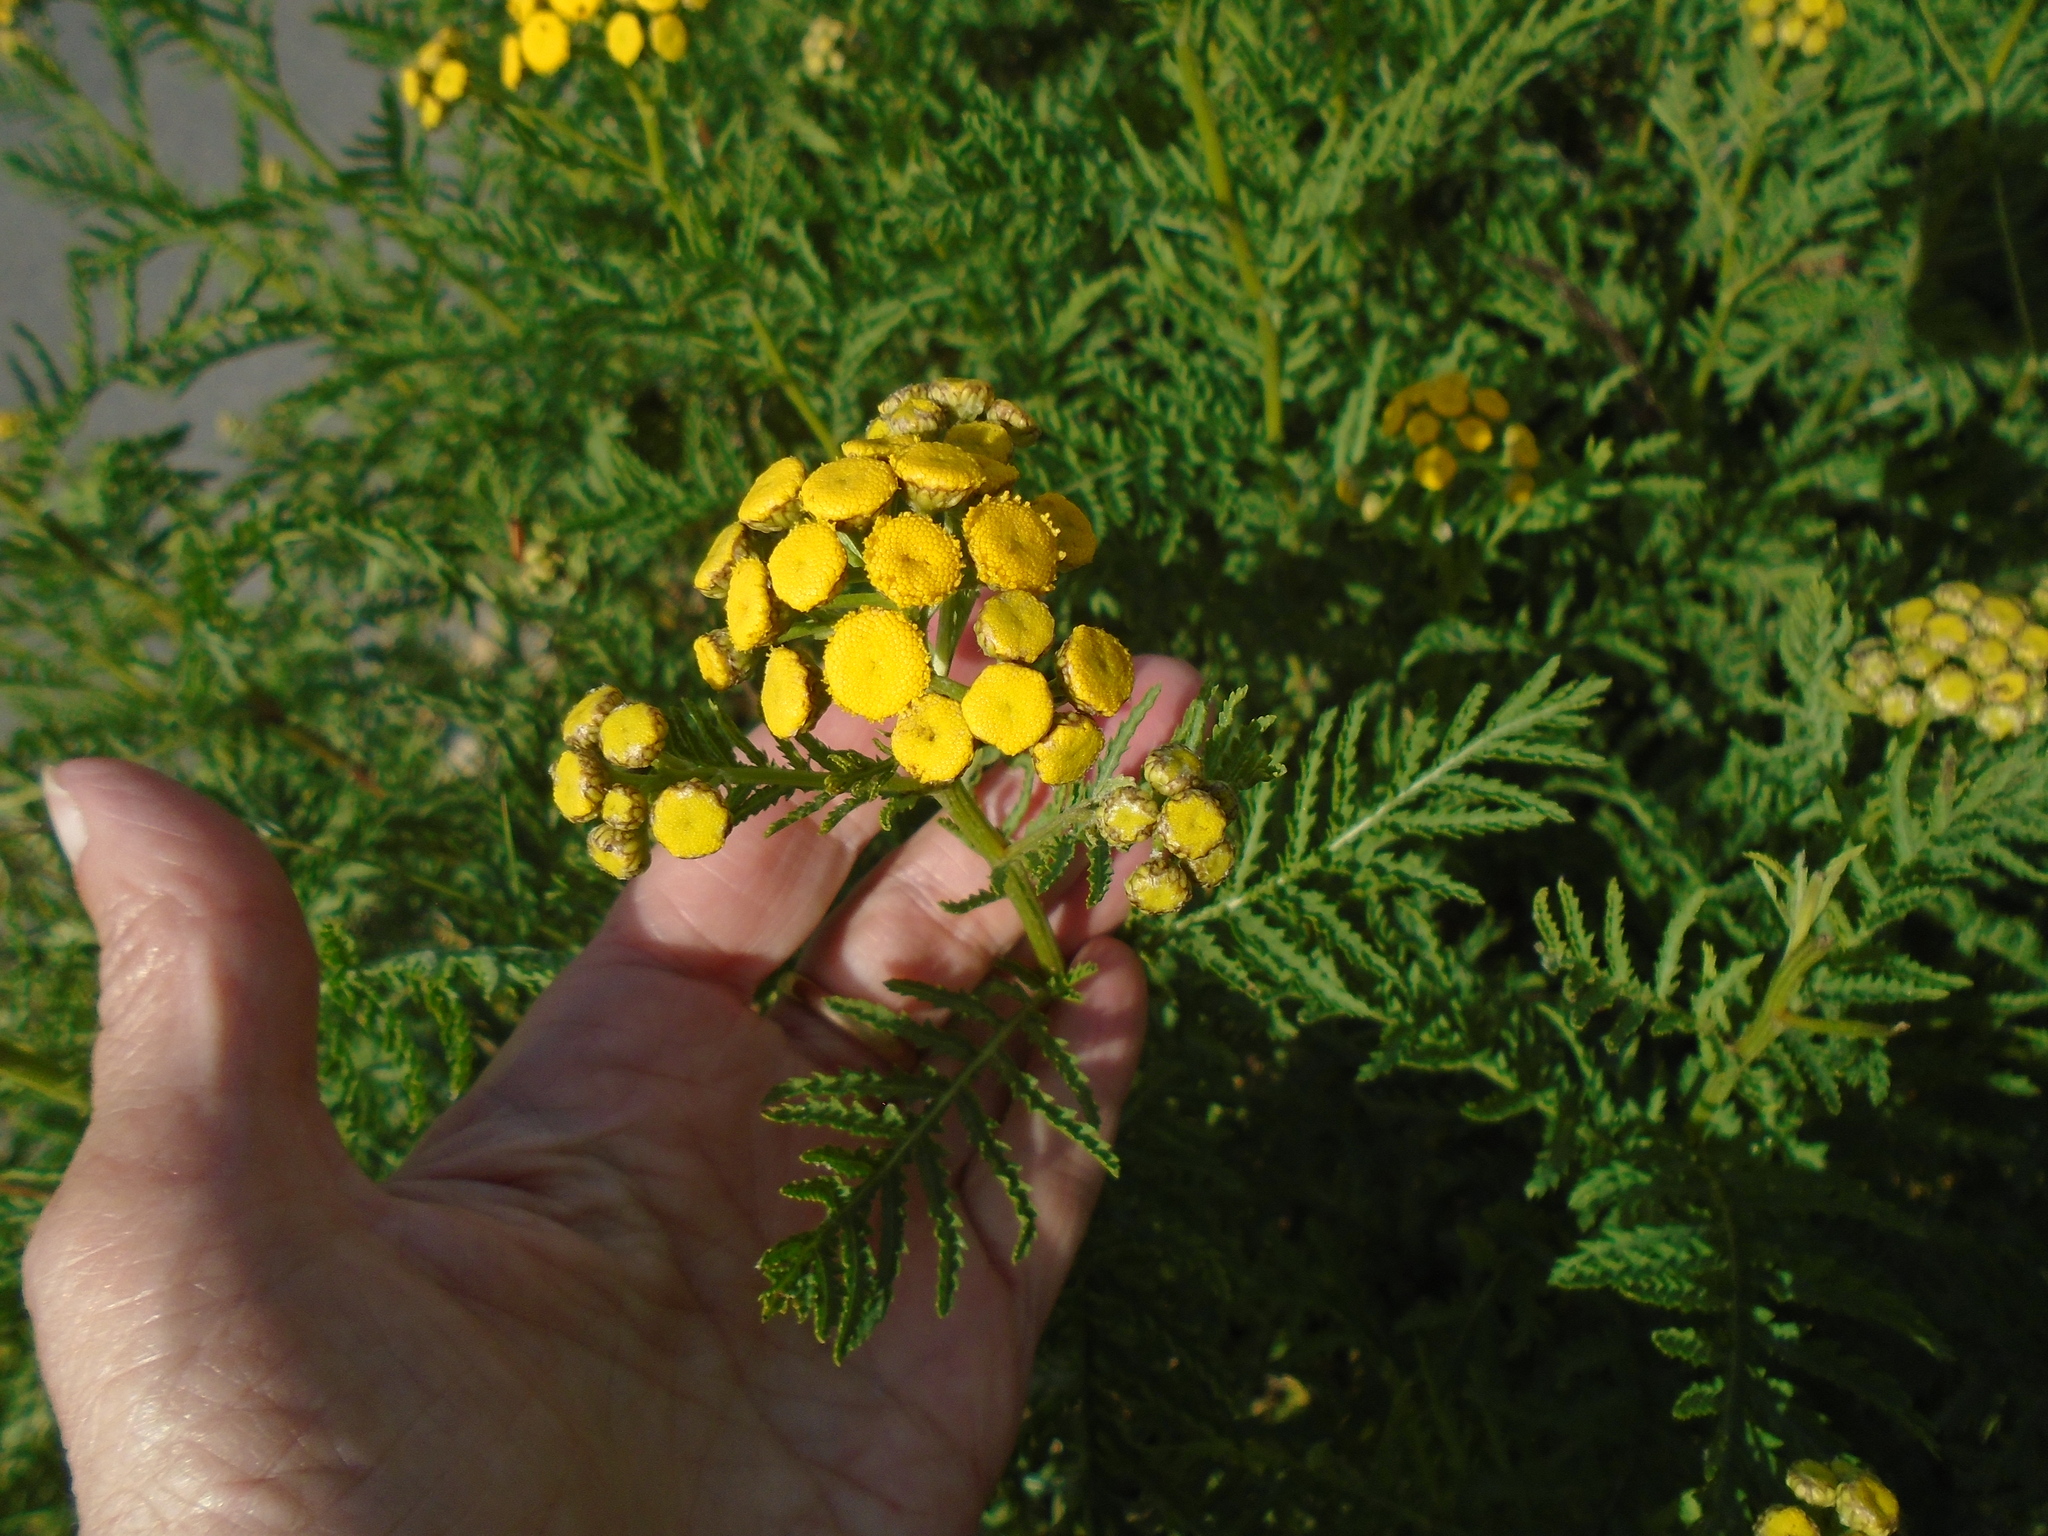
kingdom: Plantae
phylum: Tracheophyta
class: Magnoliopsida
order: Asterales
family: Asteraceae
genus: Tanacetum
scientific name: Tanacetum vulgare
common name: Common tansy
